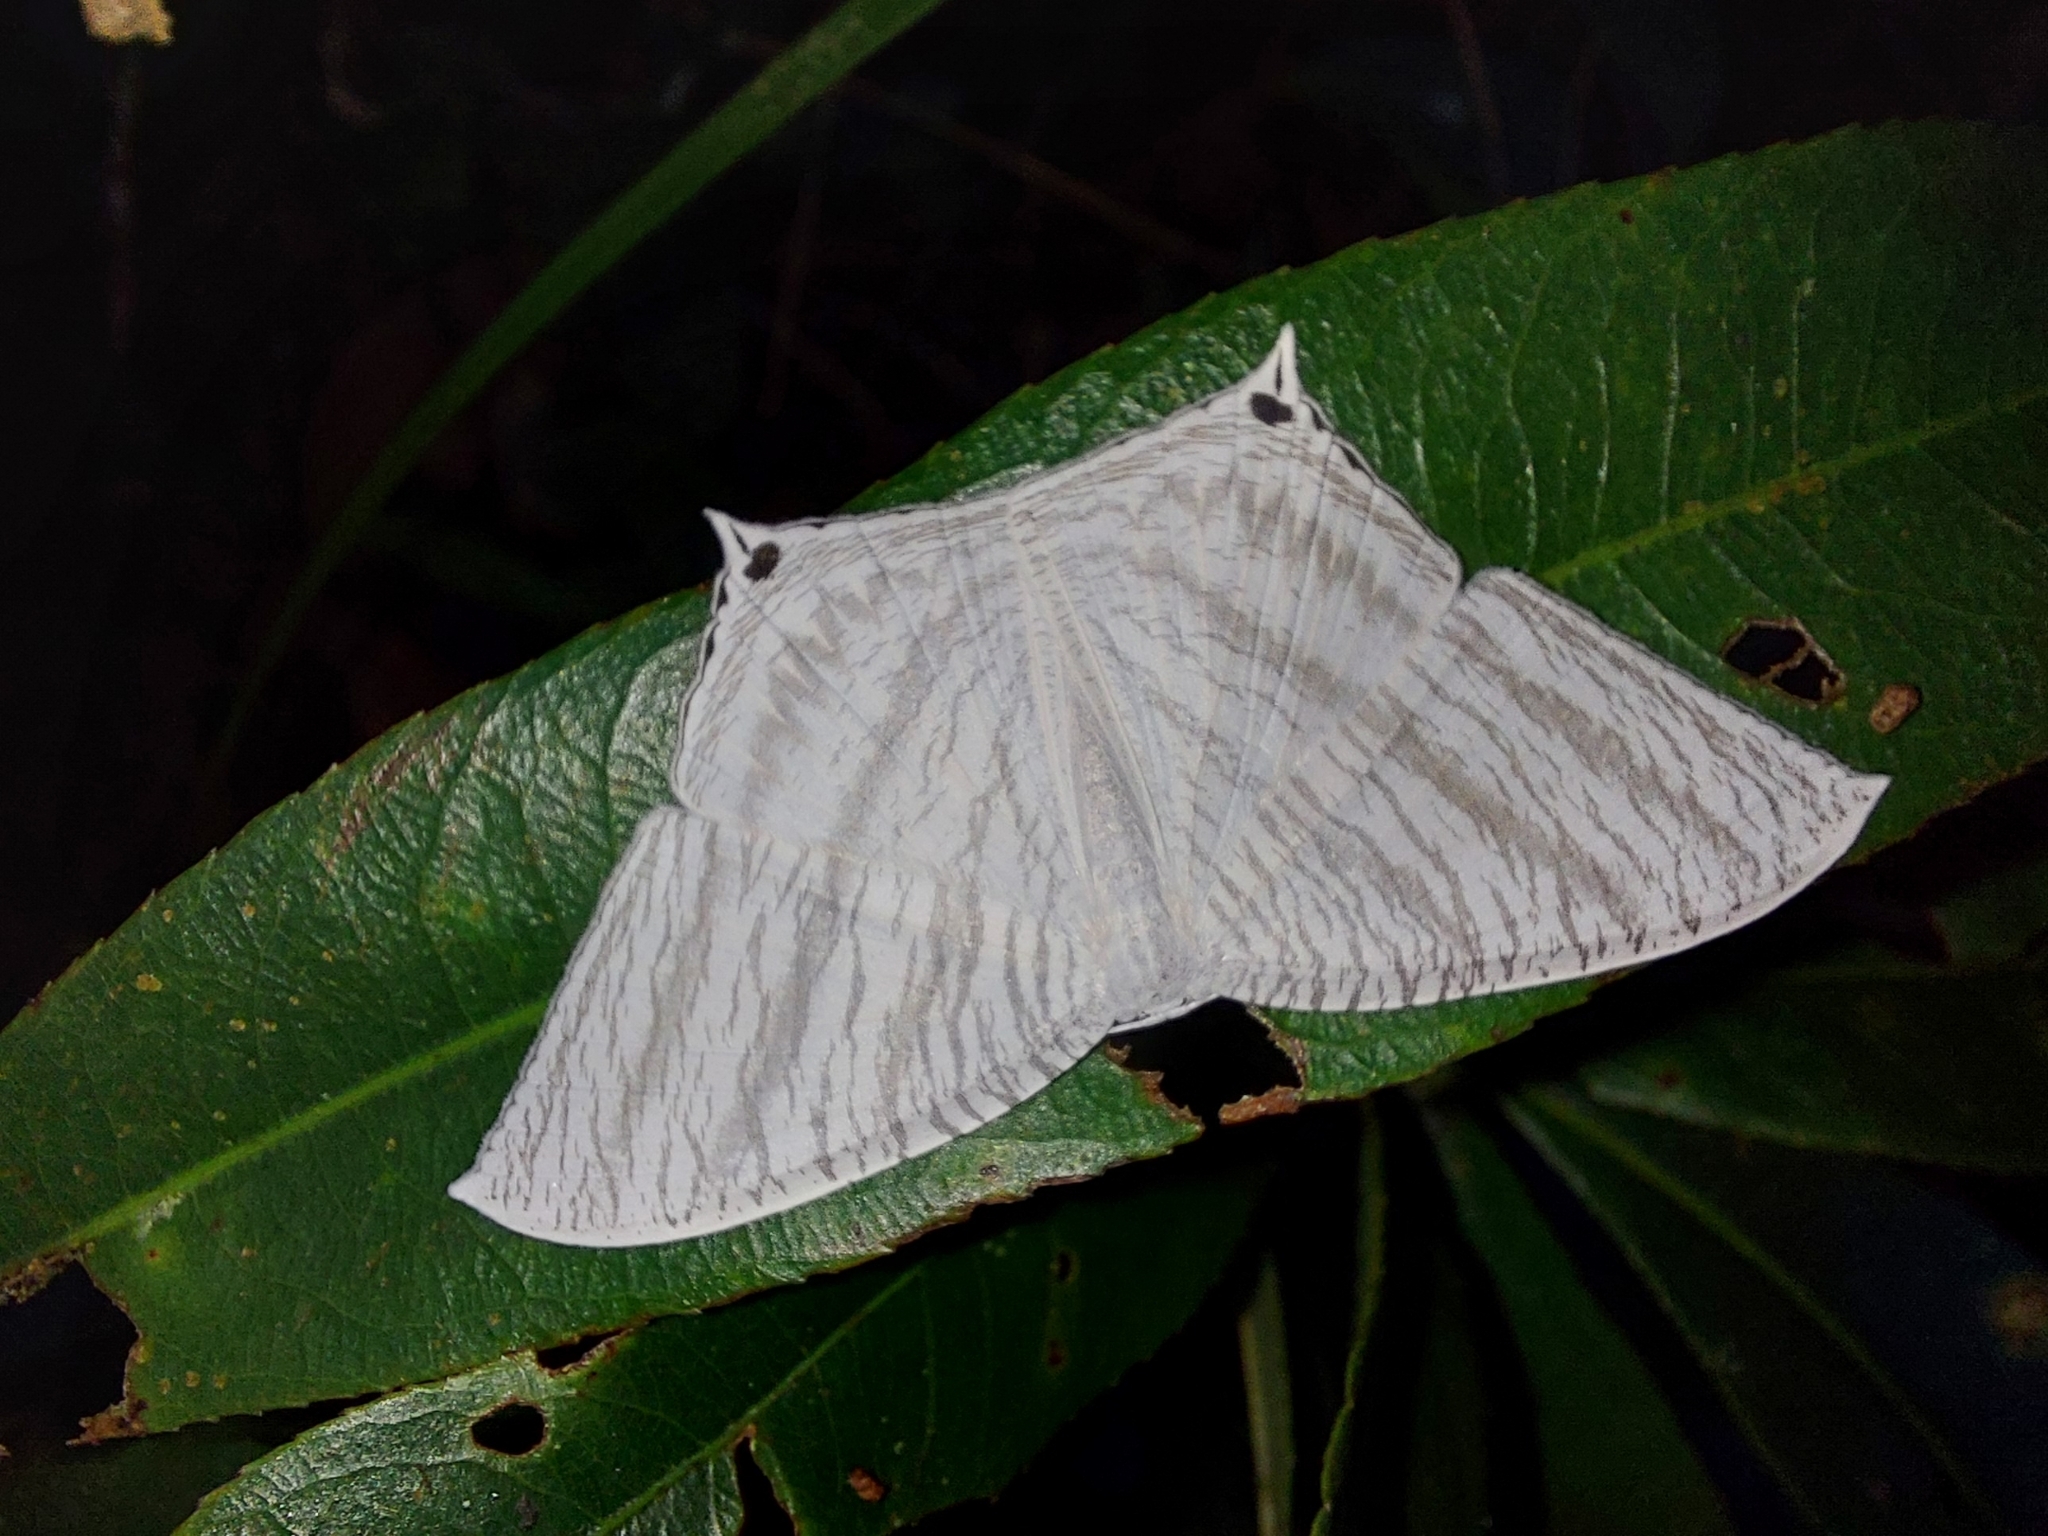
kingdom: Animalia
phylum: Arthropoda
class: Insecta
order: Lepidoptera
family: Uraniidae
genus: Micronia
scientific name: Micronia aculeata
